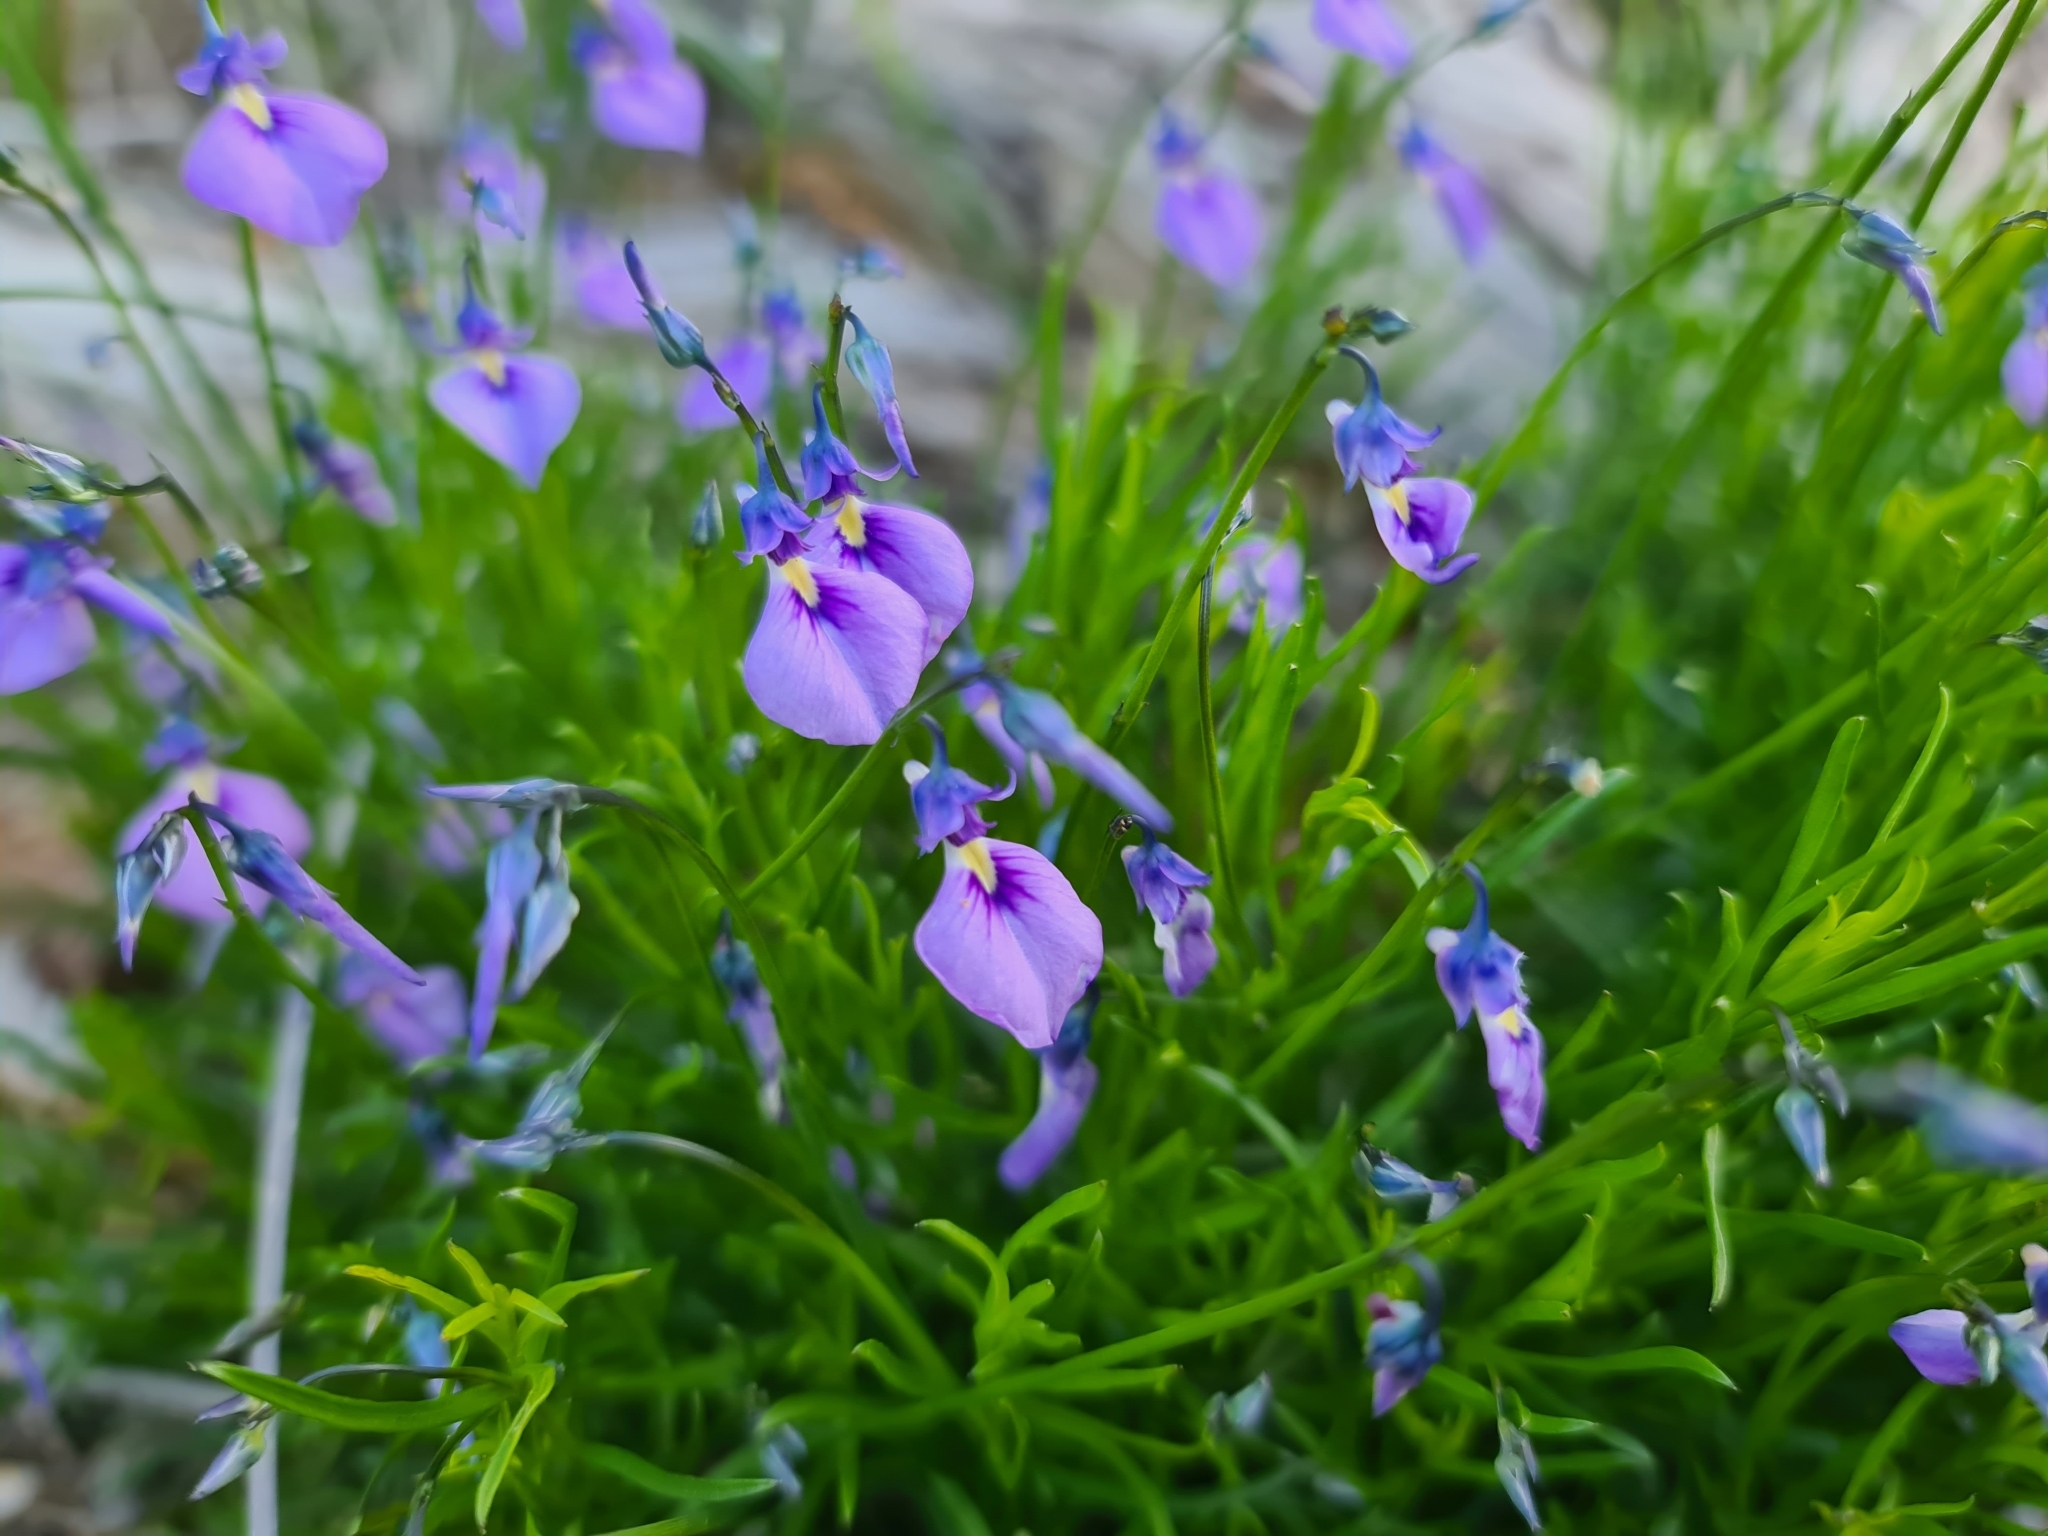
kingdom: Plantae
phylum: Tracheophyta
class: Magnoliopsida
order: Malpighiales
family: Violaceae
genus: Pigea
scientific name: Pigea calycina
